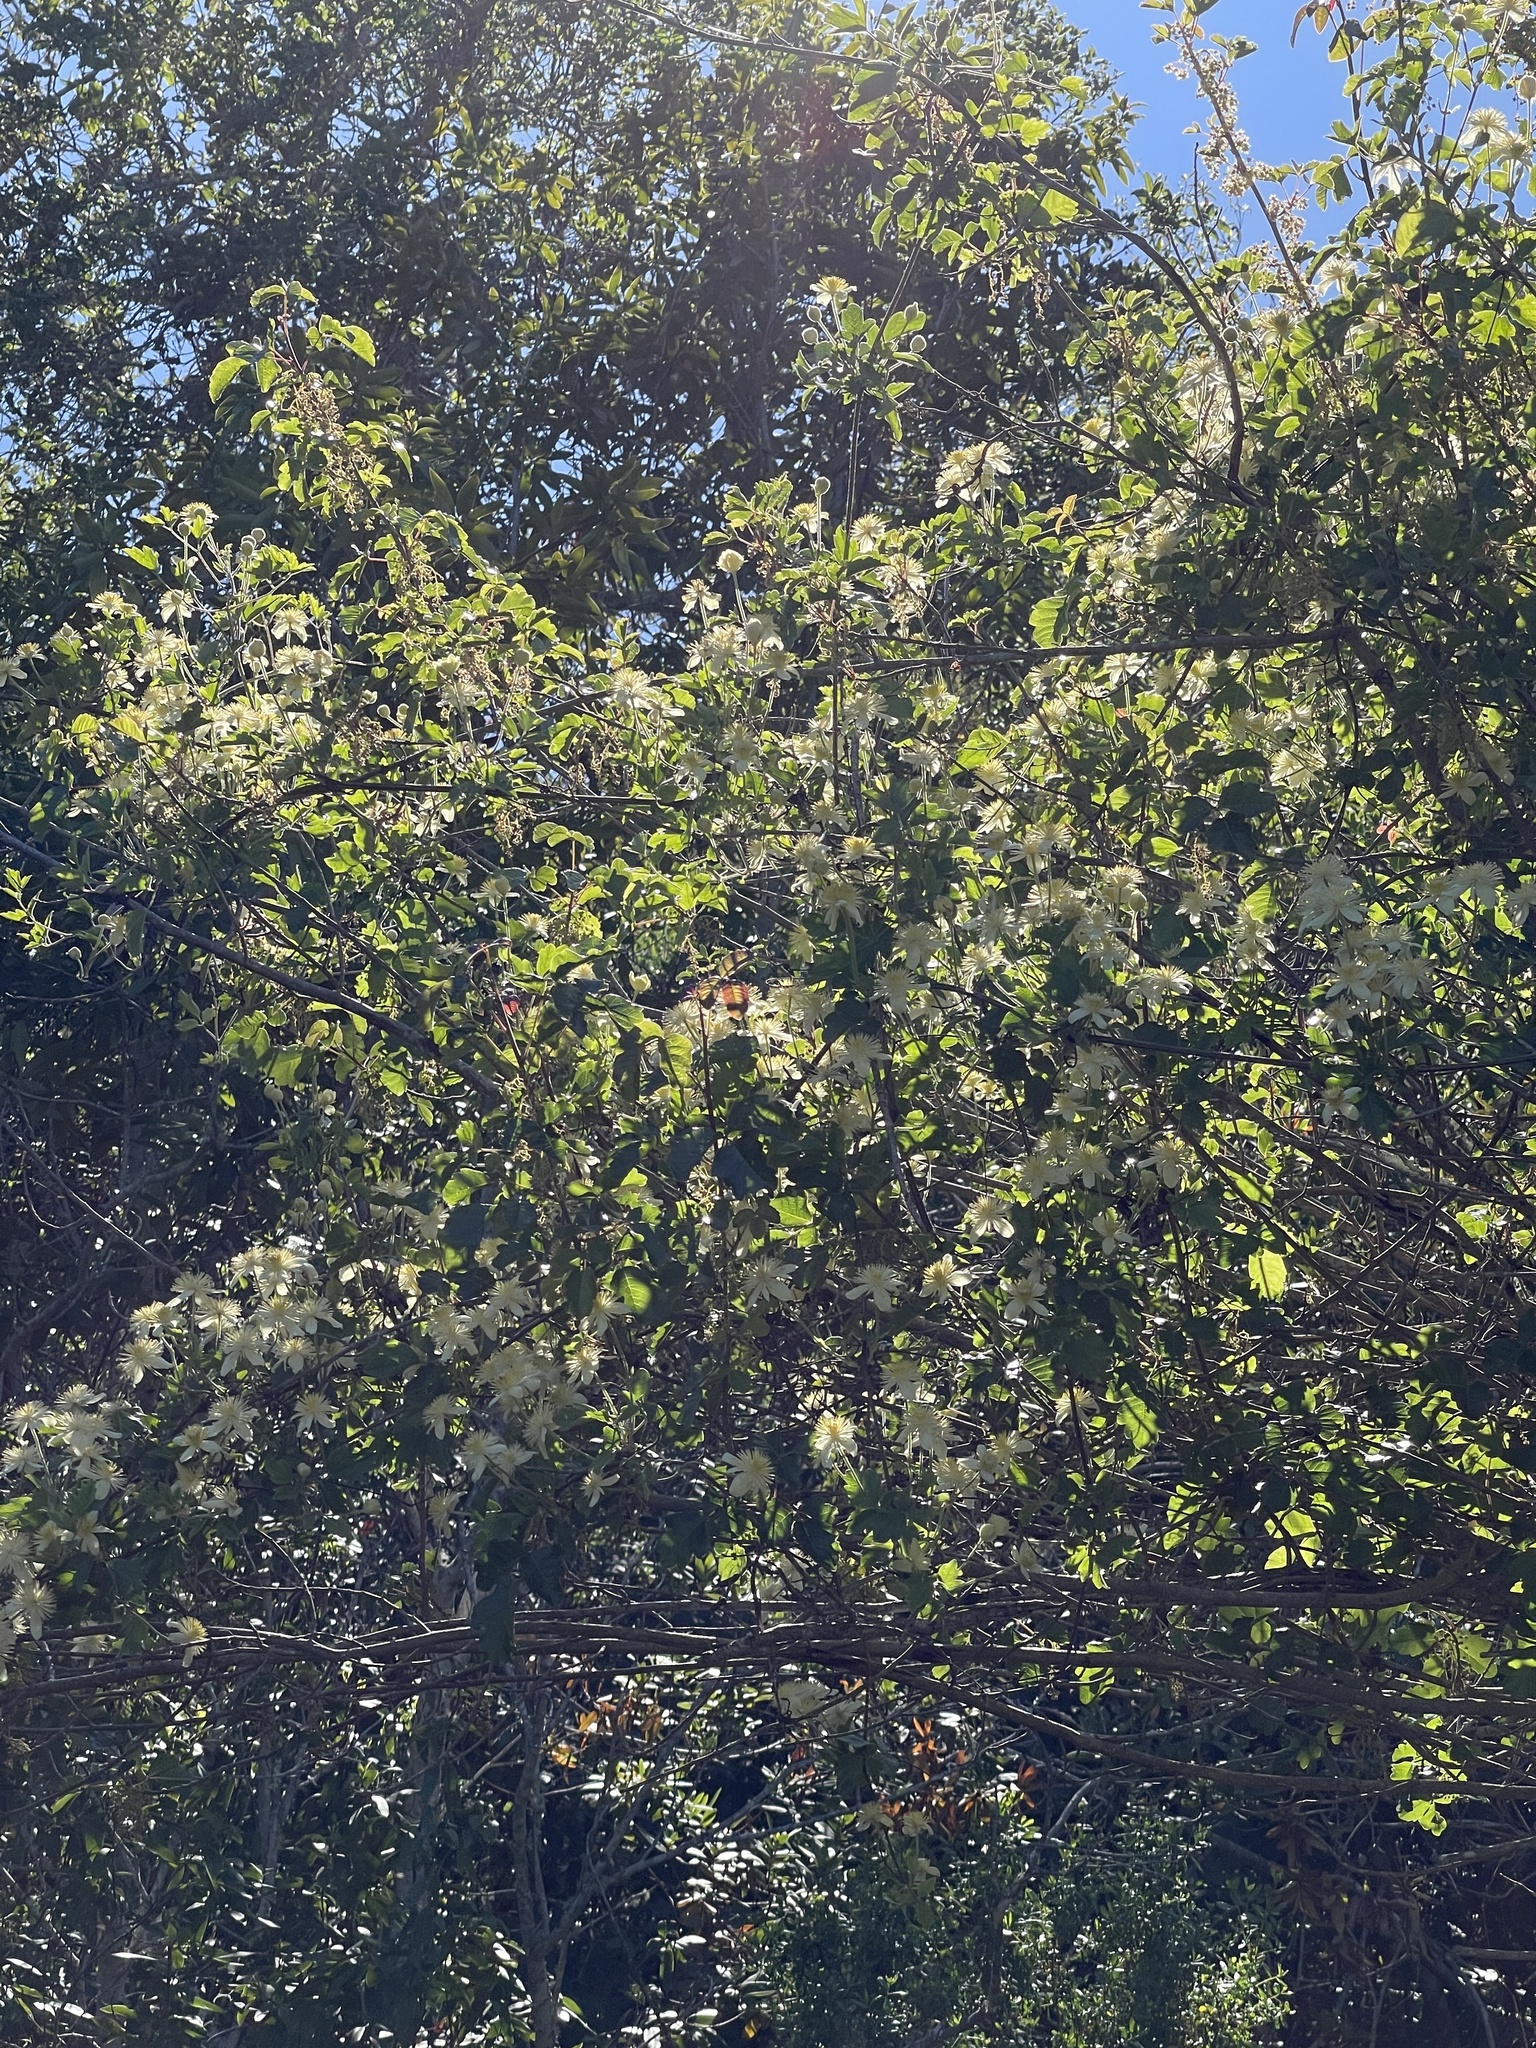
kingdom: Plantae
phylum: Tracheophyta
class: Magnoliopsida
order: Ranunculales
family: Ranunculaceae
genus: Clematis
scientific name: Clematis lasiantha
